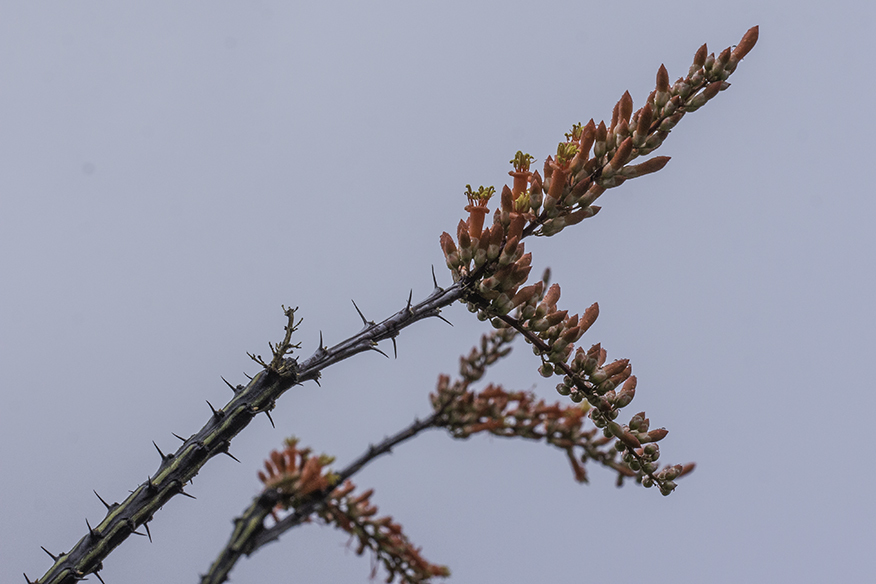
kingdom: Plantae
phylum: Tracheophyta
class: Magnoliopsida
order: Ericales
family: Fouquieriaceae
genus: Fouquieria
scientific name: Fouquieria splendens
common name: Vine-cactus
